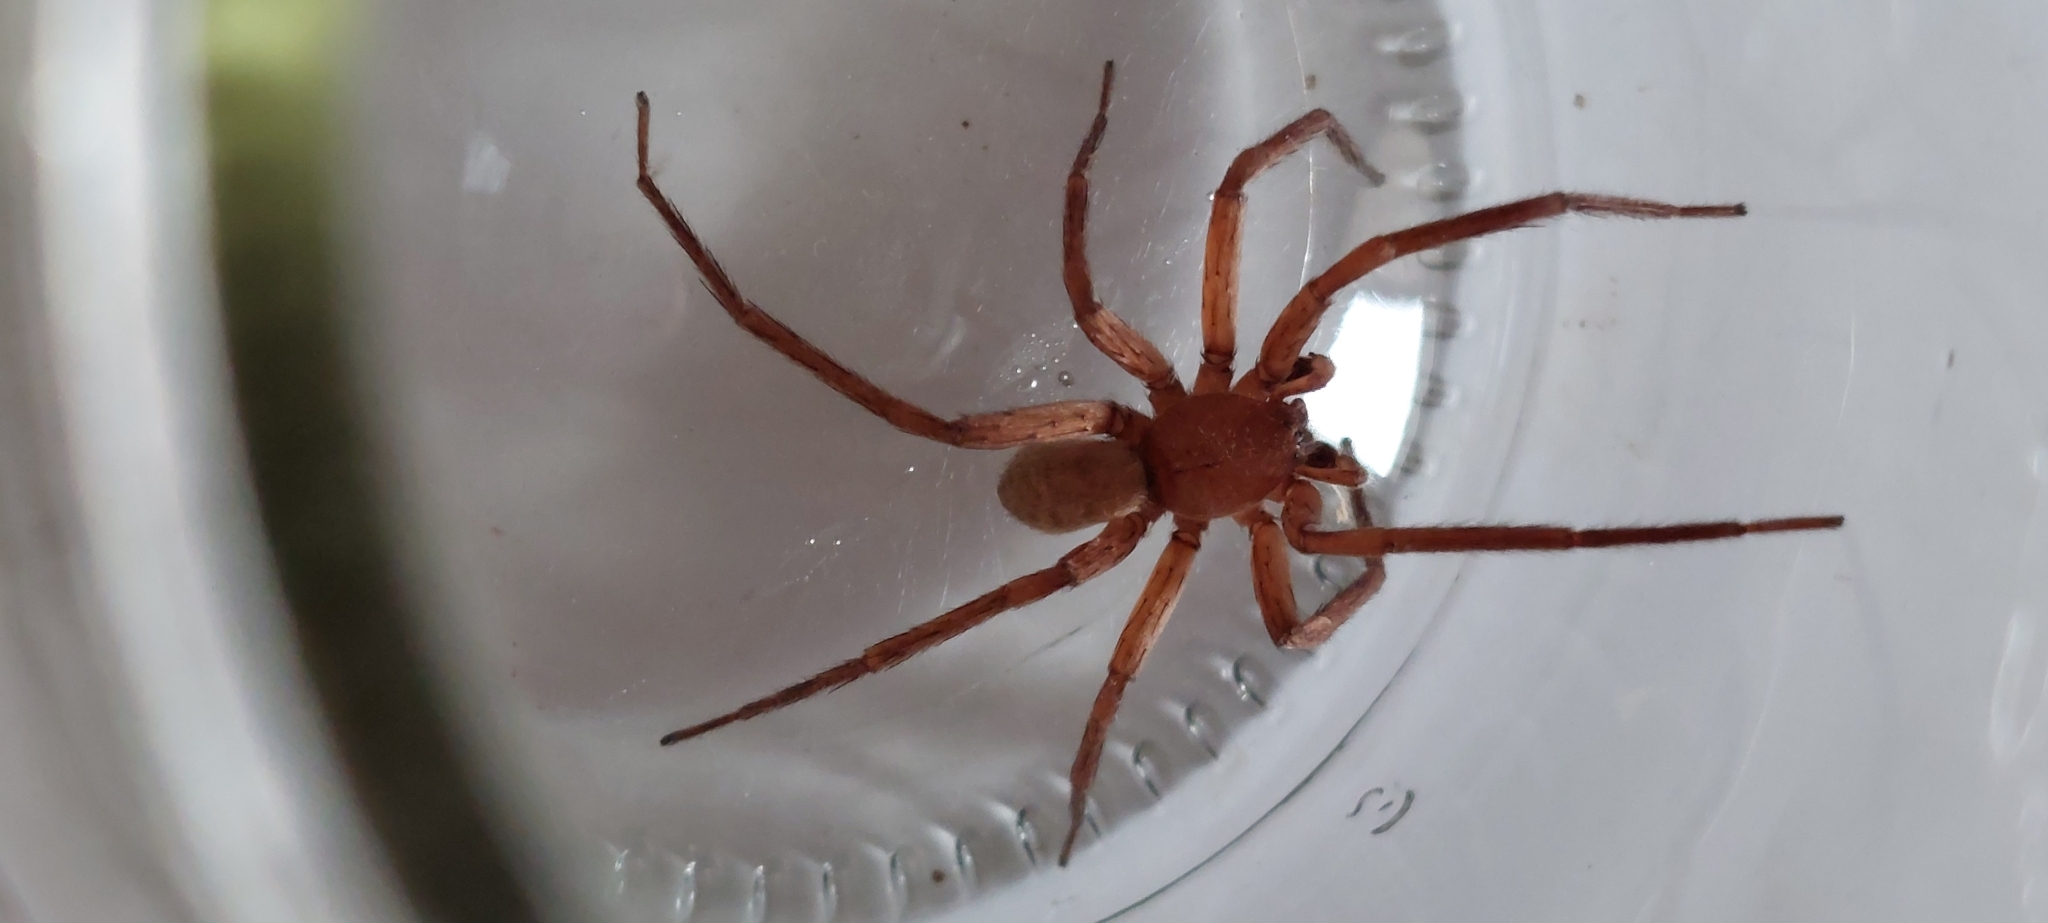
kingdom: Animalia
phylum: Arthropoda
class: Arachnida
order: Araneae
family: Ctenidae
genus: Asthenoctenus
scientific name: Asthenoctenus borellii
